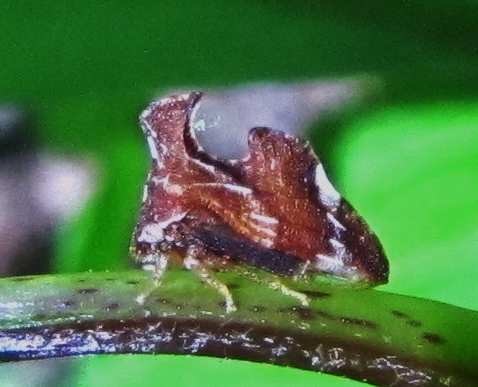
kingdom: Animalia
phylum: Arthropoda
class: Insecta
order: Hemiptera
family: Membracidae
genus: Entylia
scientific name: Entylia carinata
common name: Keeled treehopper
